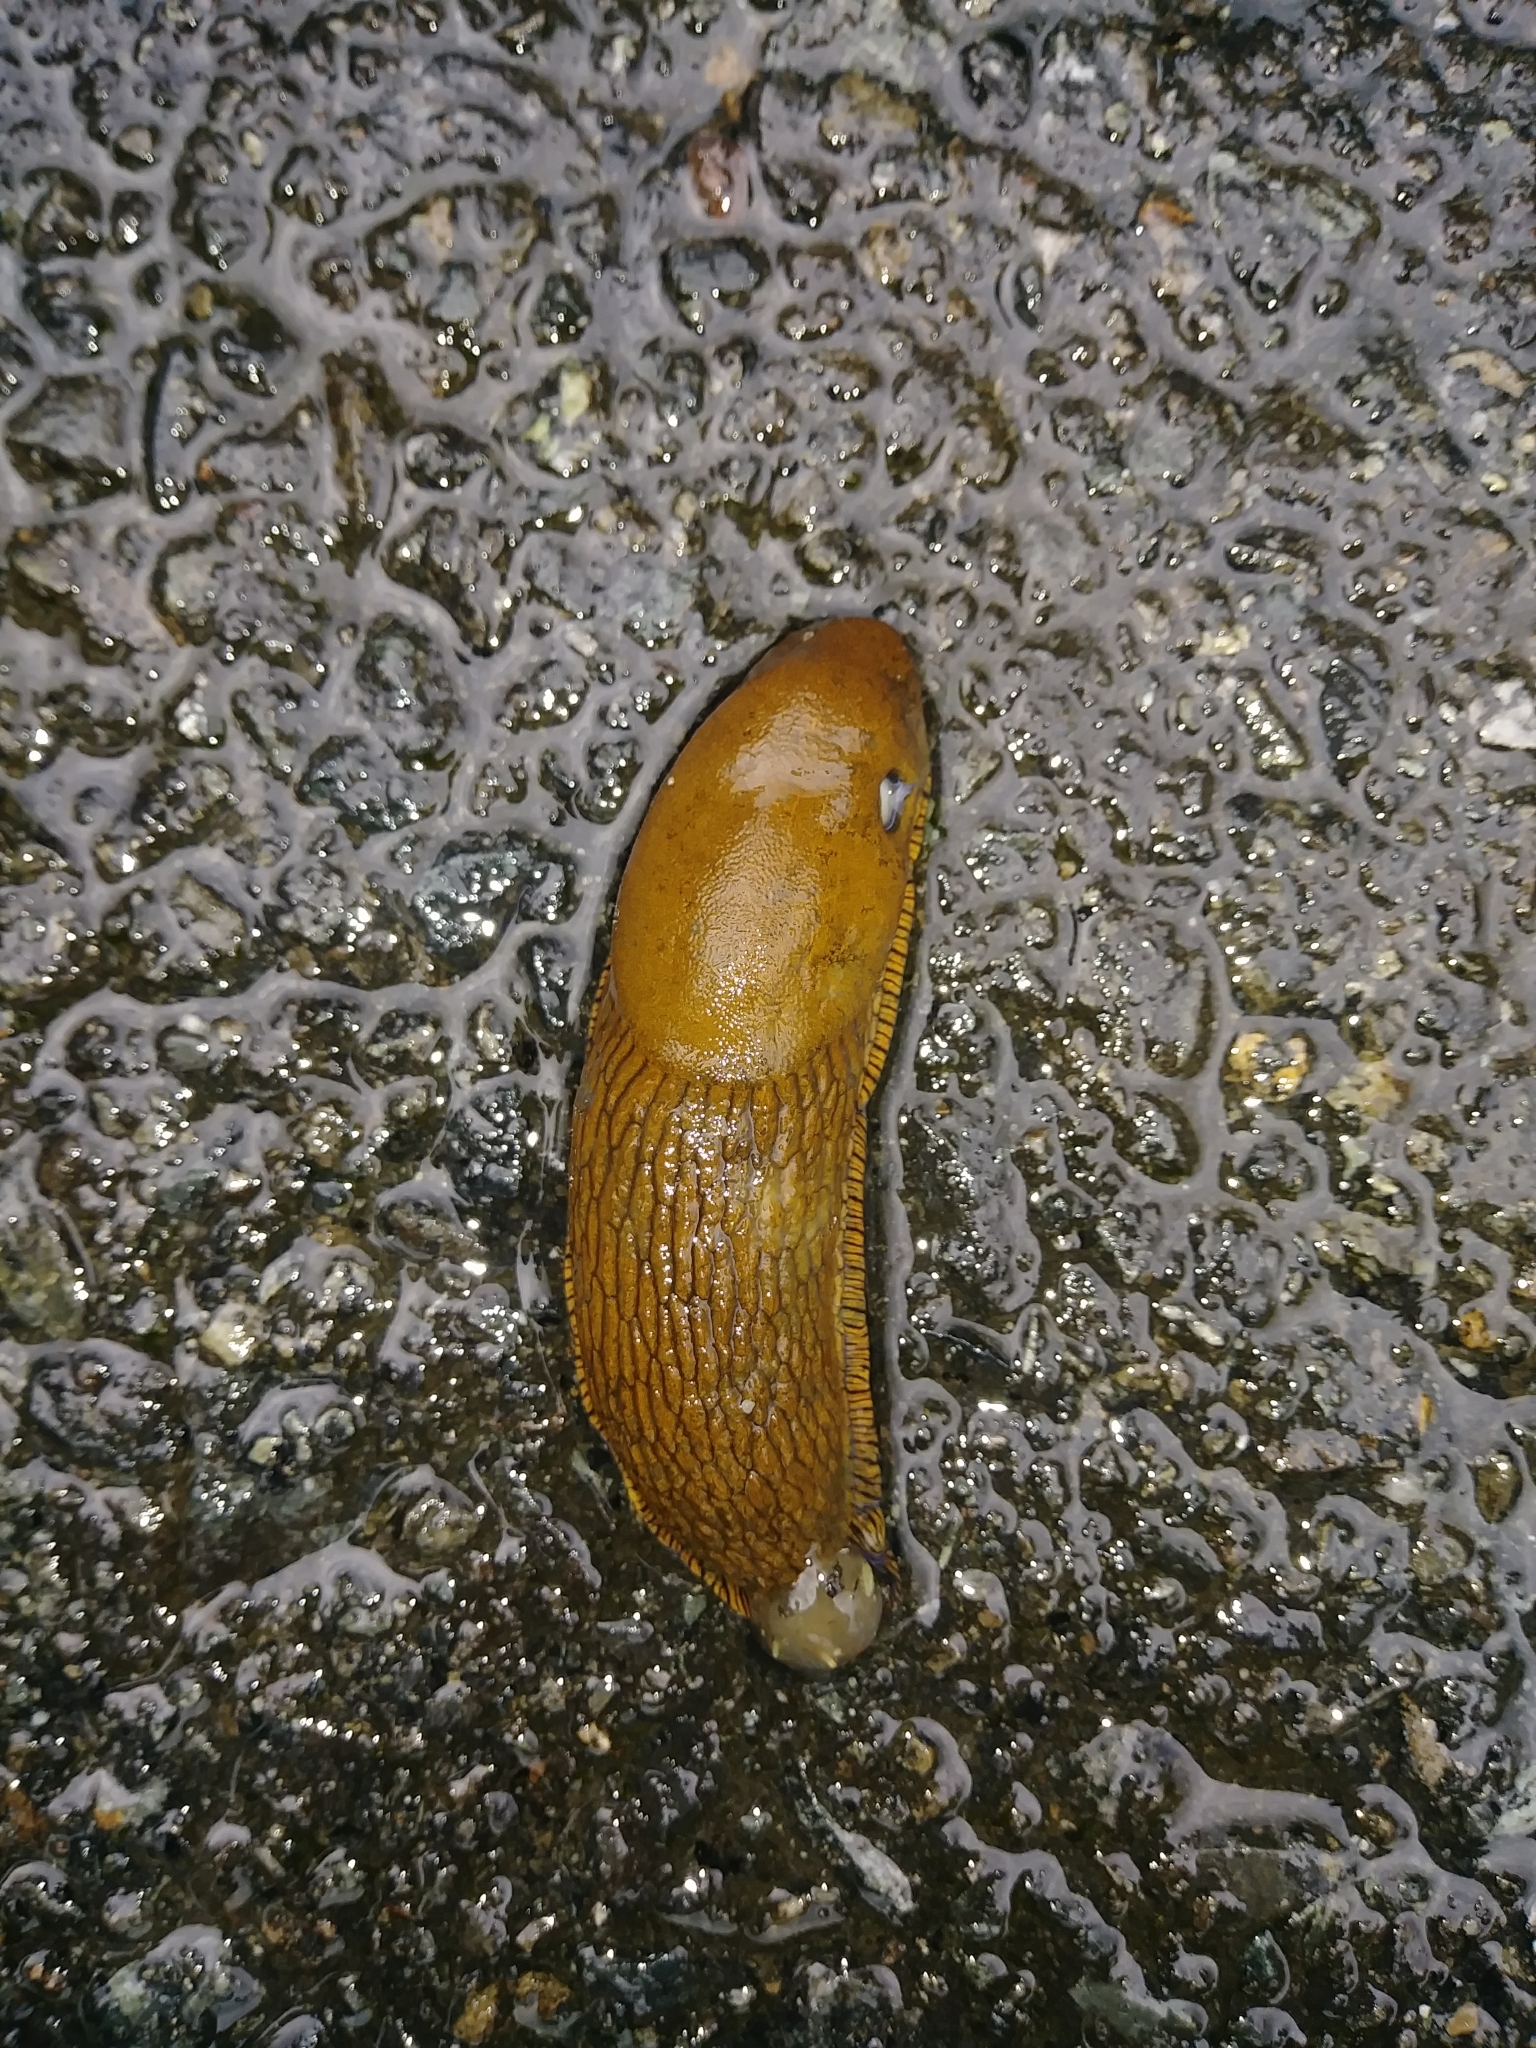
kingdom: Animalia
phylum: Mollusca
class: Gastropoda
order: Stylommatophora
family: Arionidae
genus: Arion
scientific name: Arion rufus
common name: Chocolate arion
